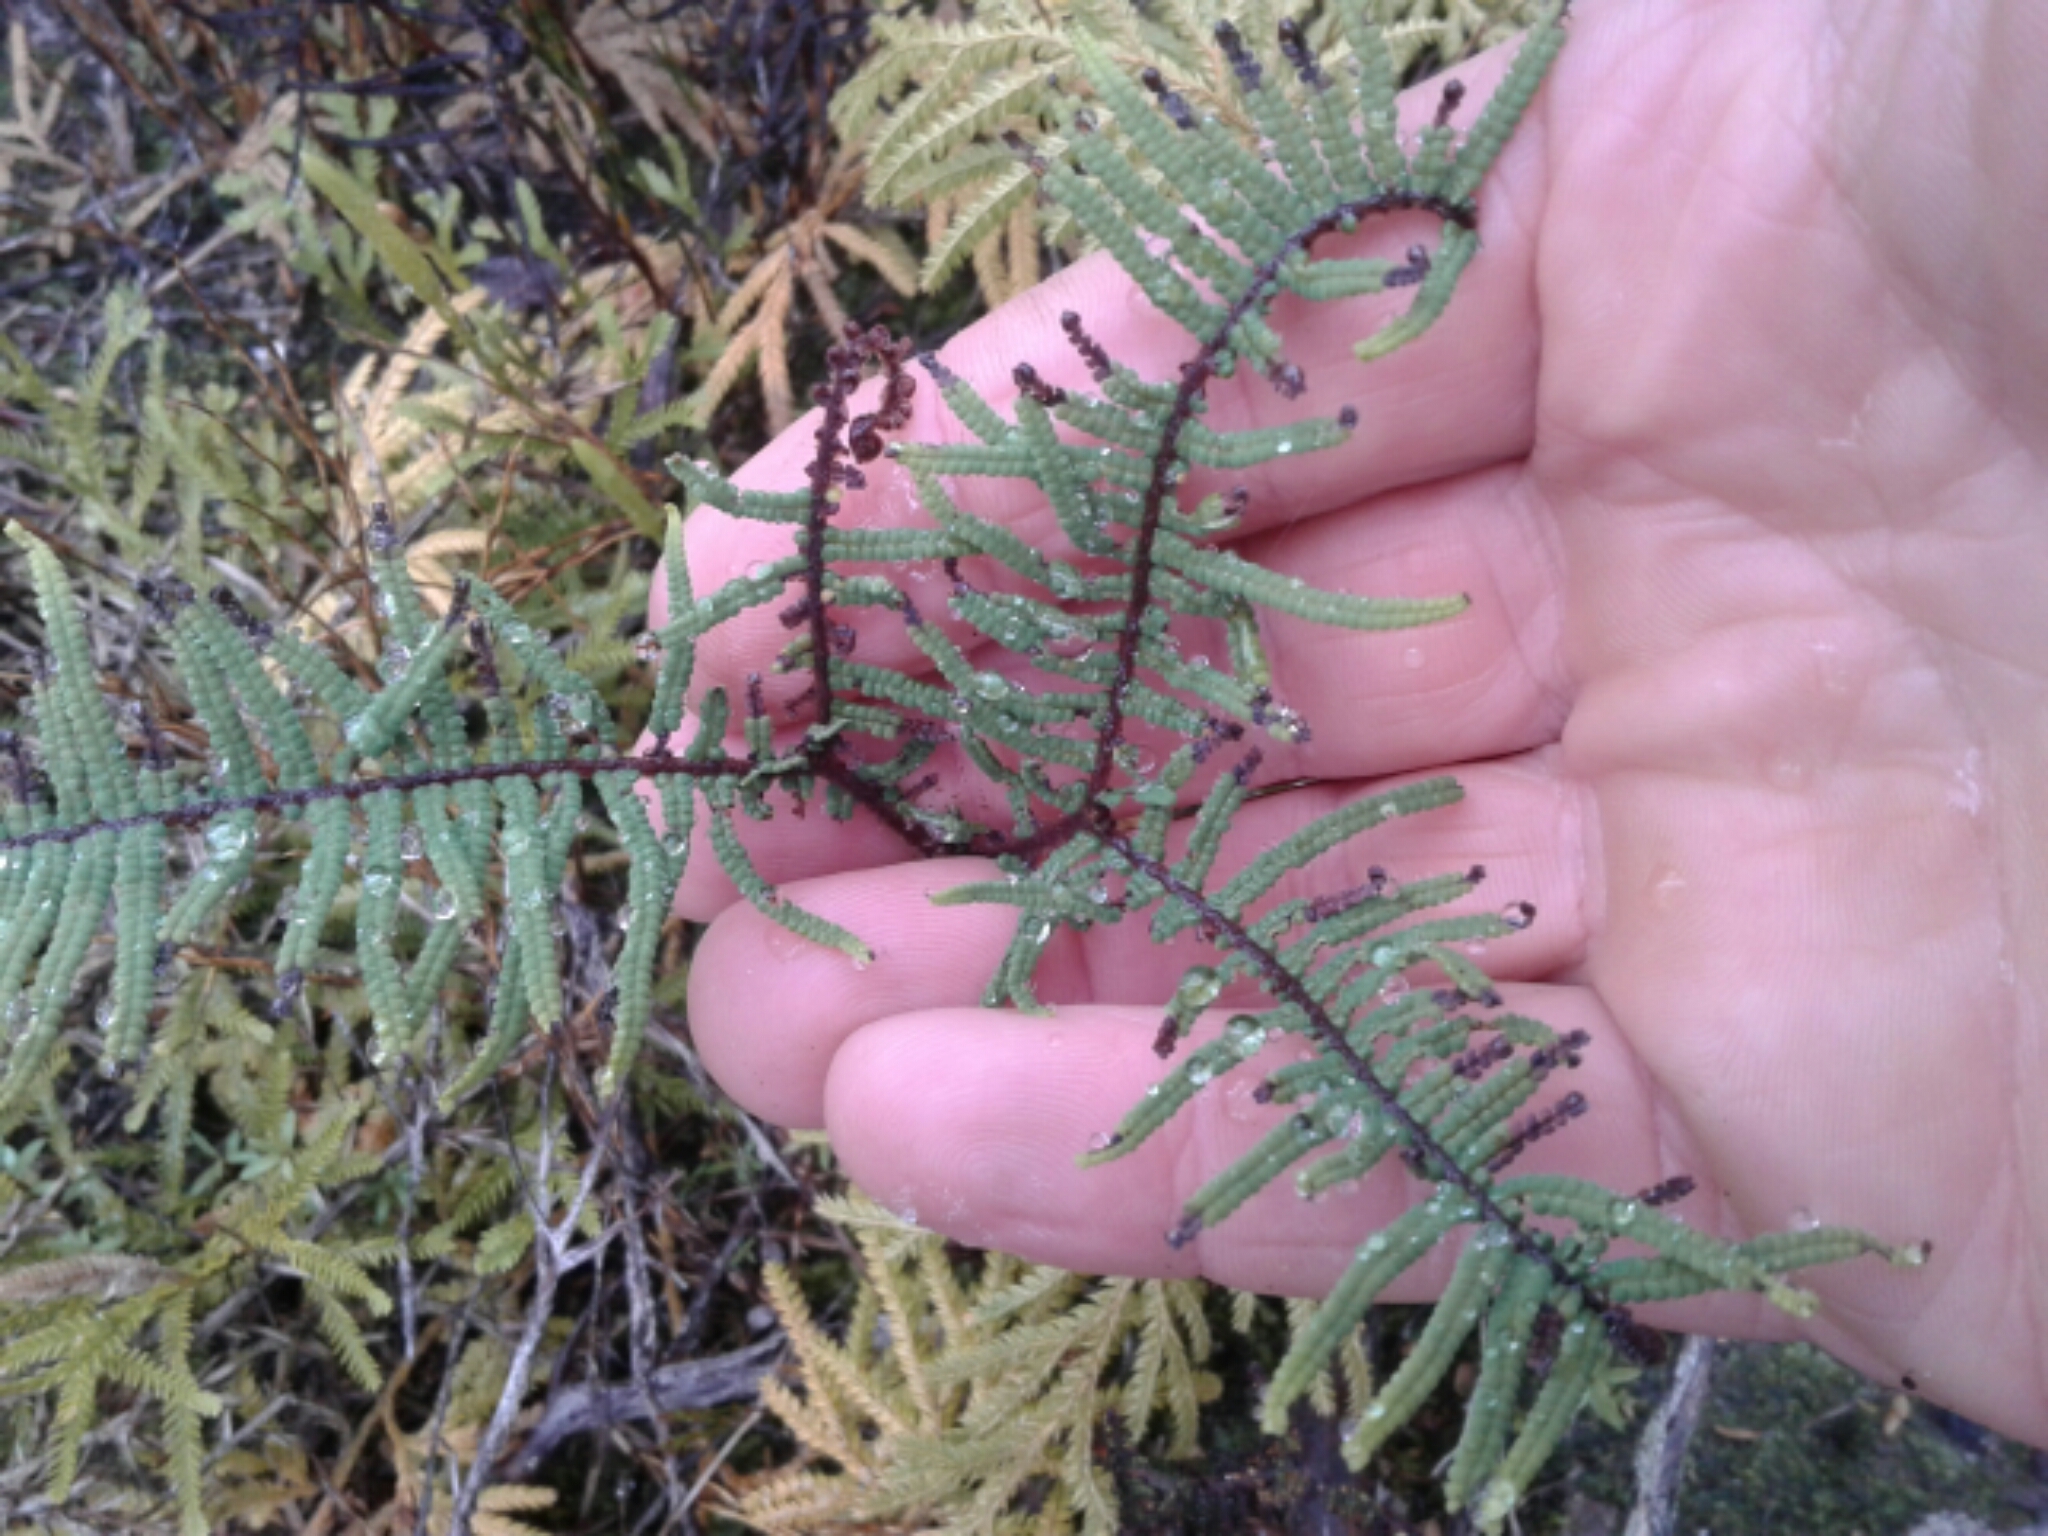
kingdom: Plantae
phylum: Tracheophyta
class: Polypodiopsida
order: Gleicheniales
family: Gleicheniaceae
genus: Gleichenia
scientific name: Gleichenia dicarpa
